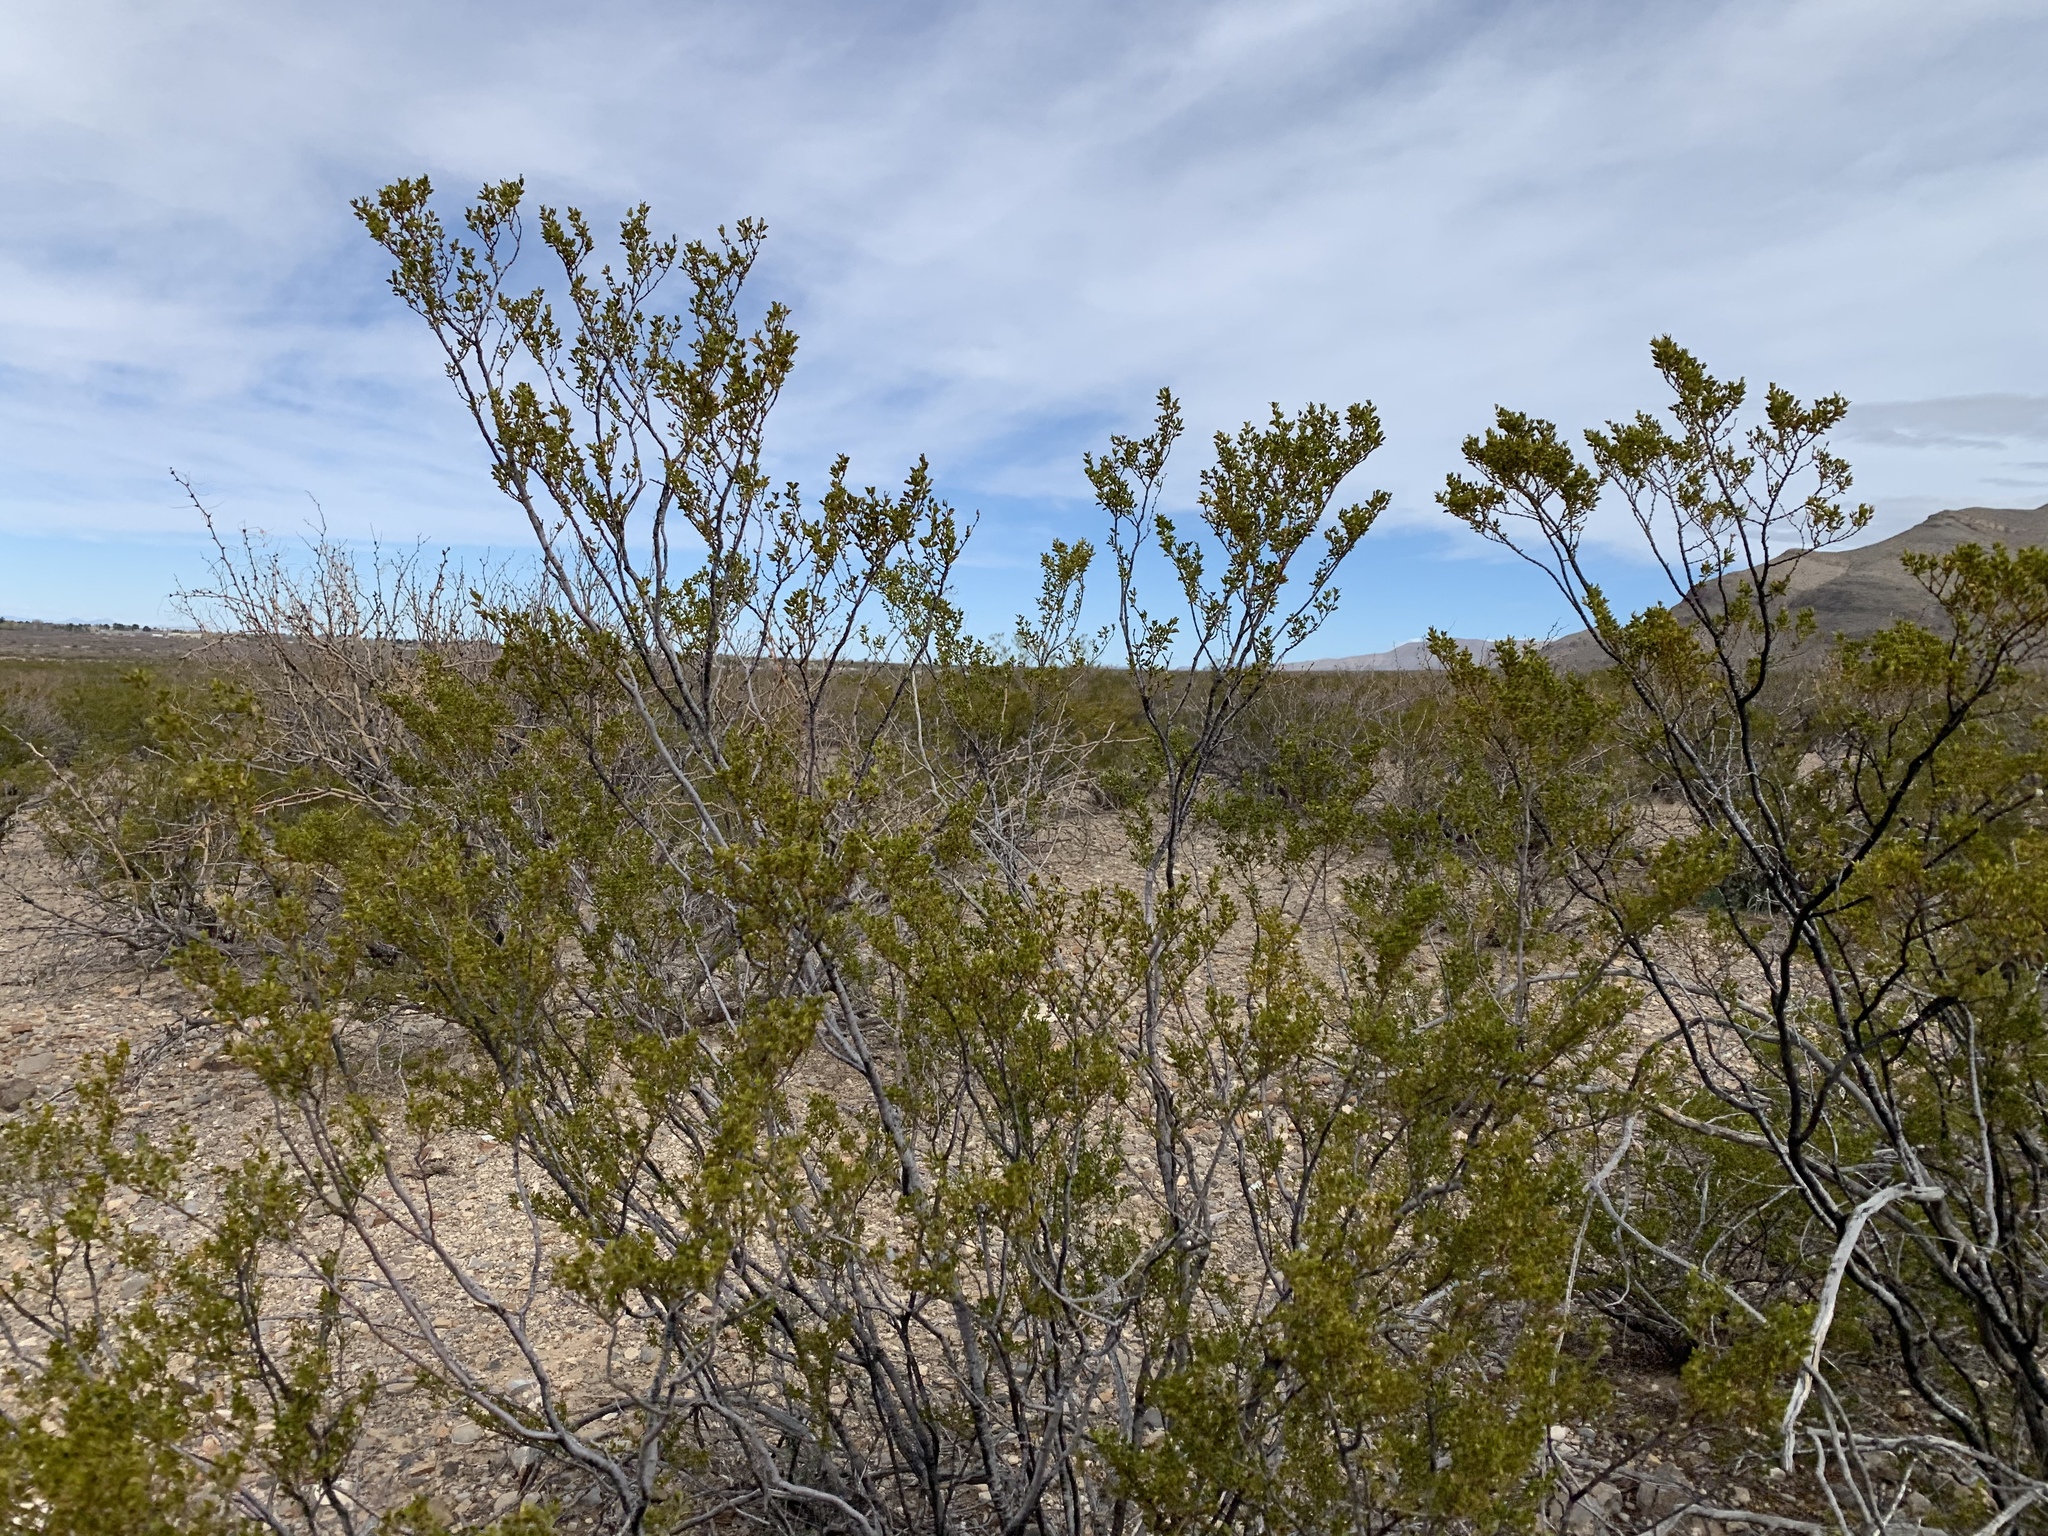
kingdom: Plantae
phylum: Tracheophyta
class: Magnoliopsida
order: Zygophyllales
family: Zygophyllaceae
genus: Larrea
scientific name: Larrea tridentata
